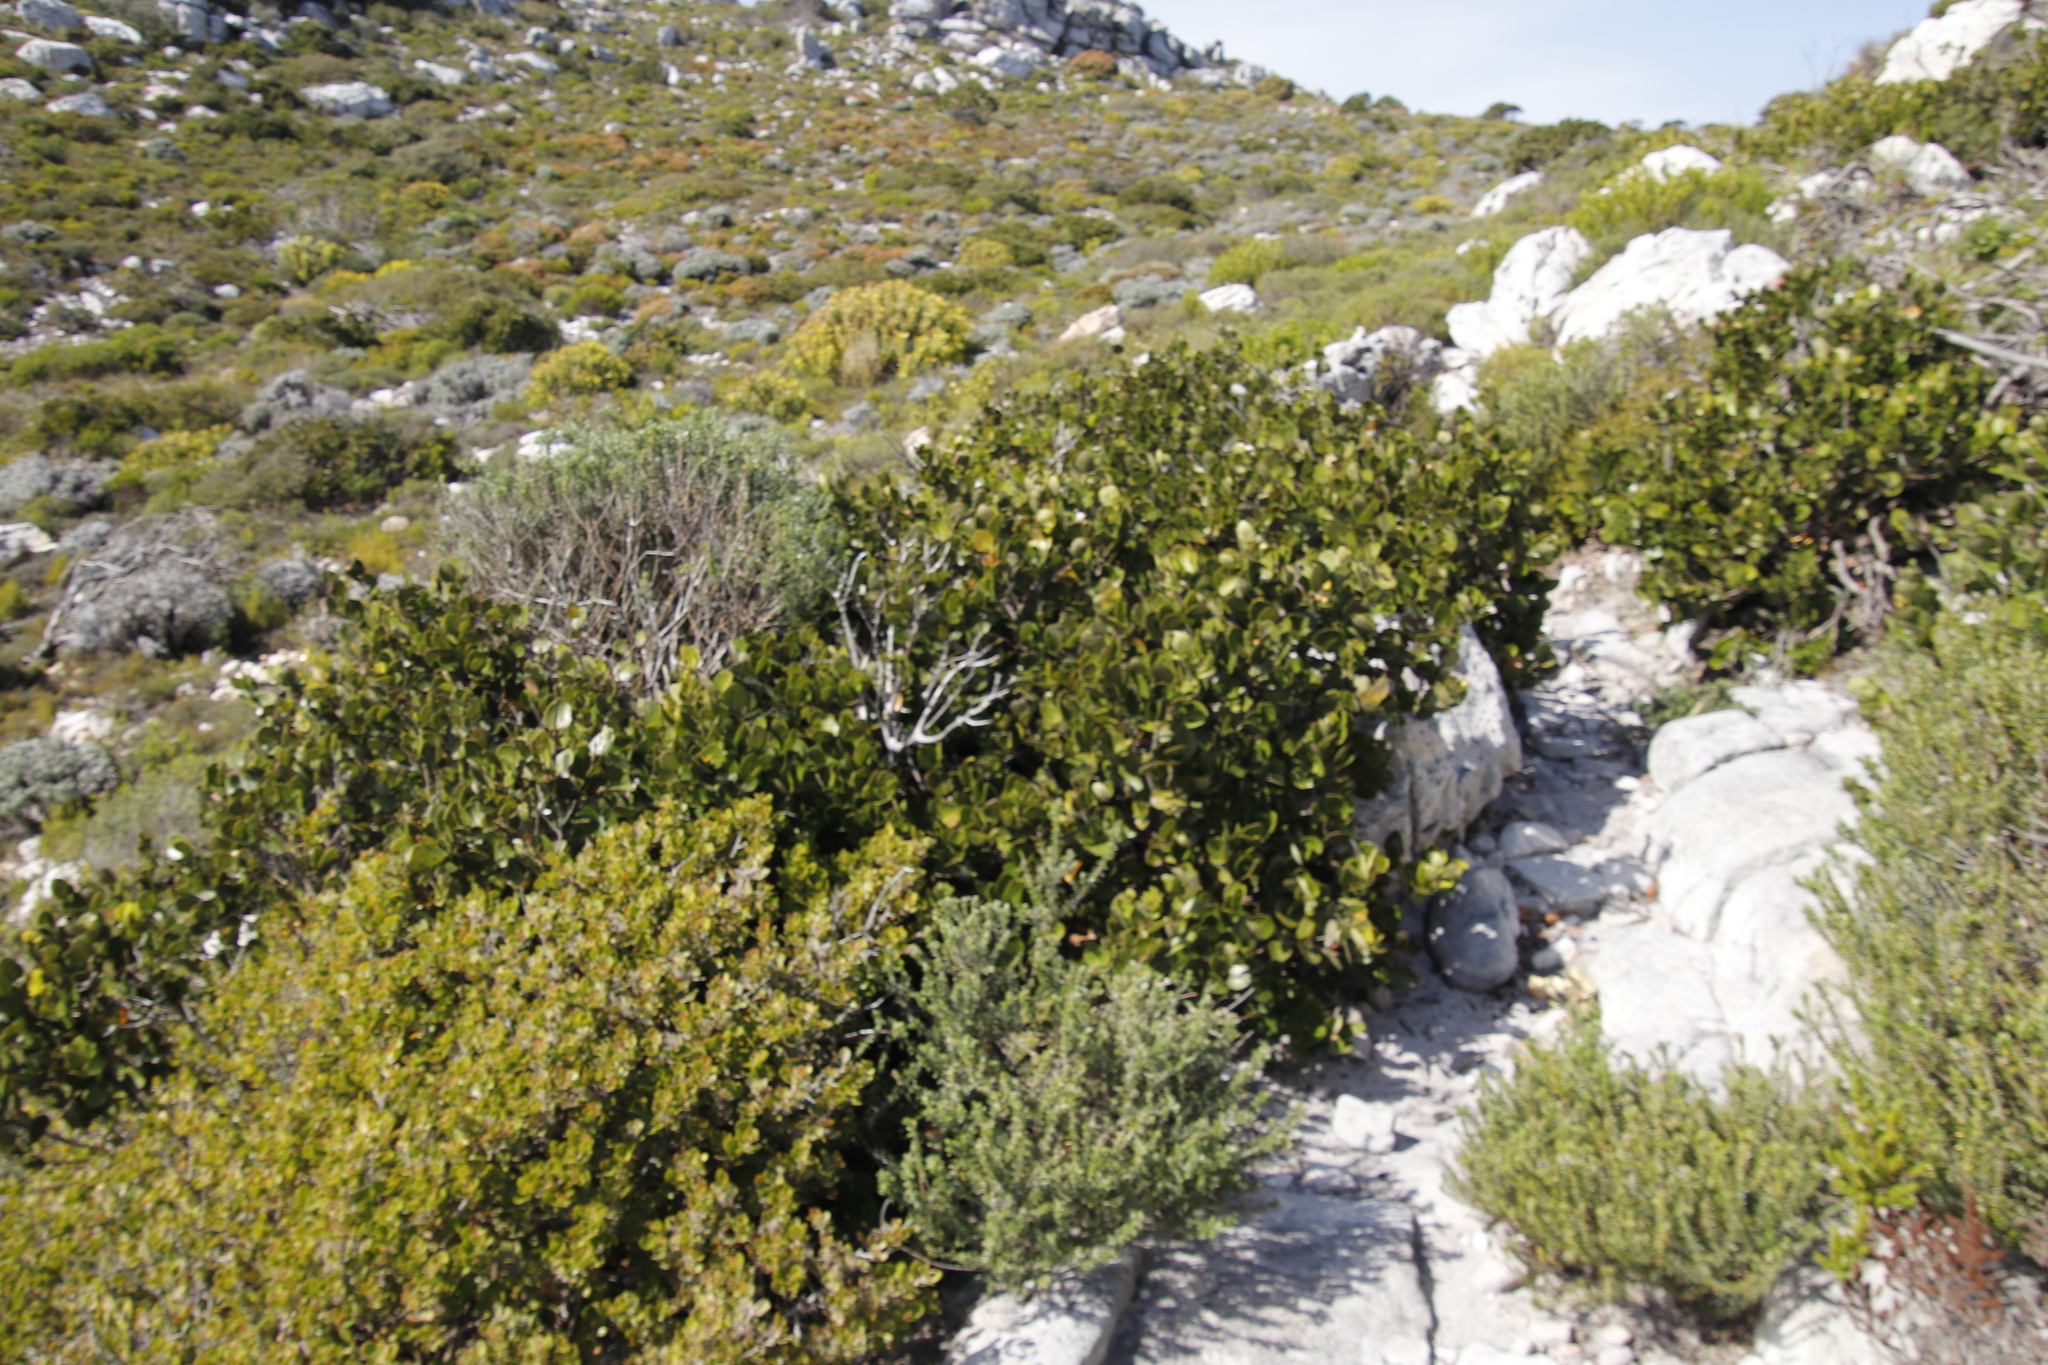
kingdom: Plantae
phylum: Tracheophyta
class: Magnoliopsida
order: Celastrales
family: Celastraceae
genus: Cassine
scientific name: Cassine peragua
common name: Cape saffron
